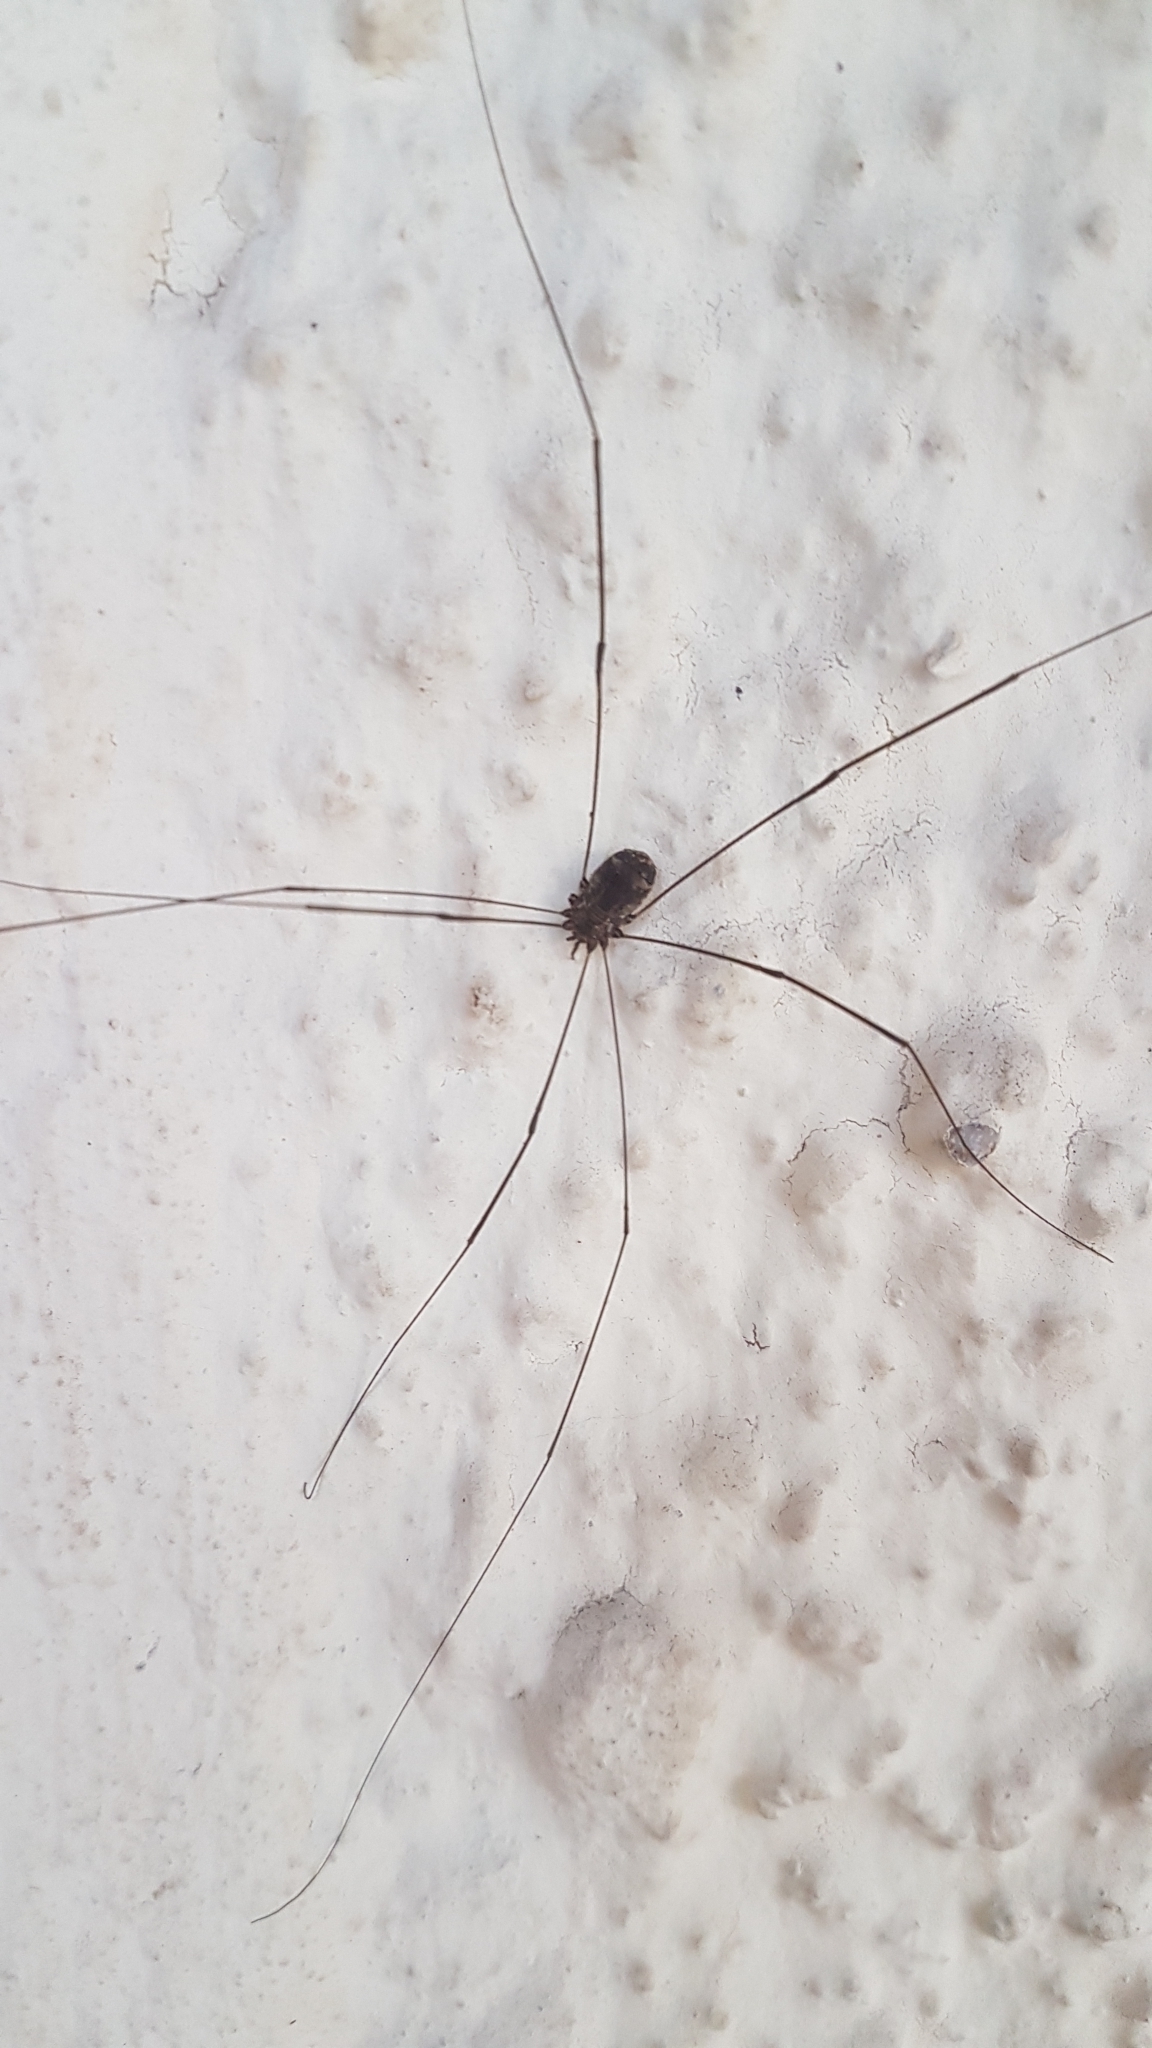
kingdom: Animalia
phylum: Arthropoda
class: Arachnida
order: Opiliones
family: Sclerosomatidae
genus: Leiobunum
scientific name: Leiobunum
